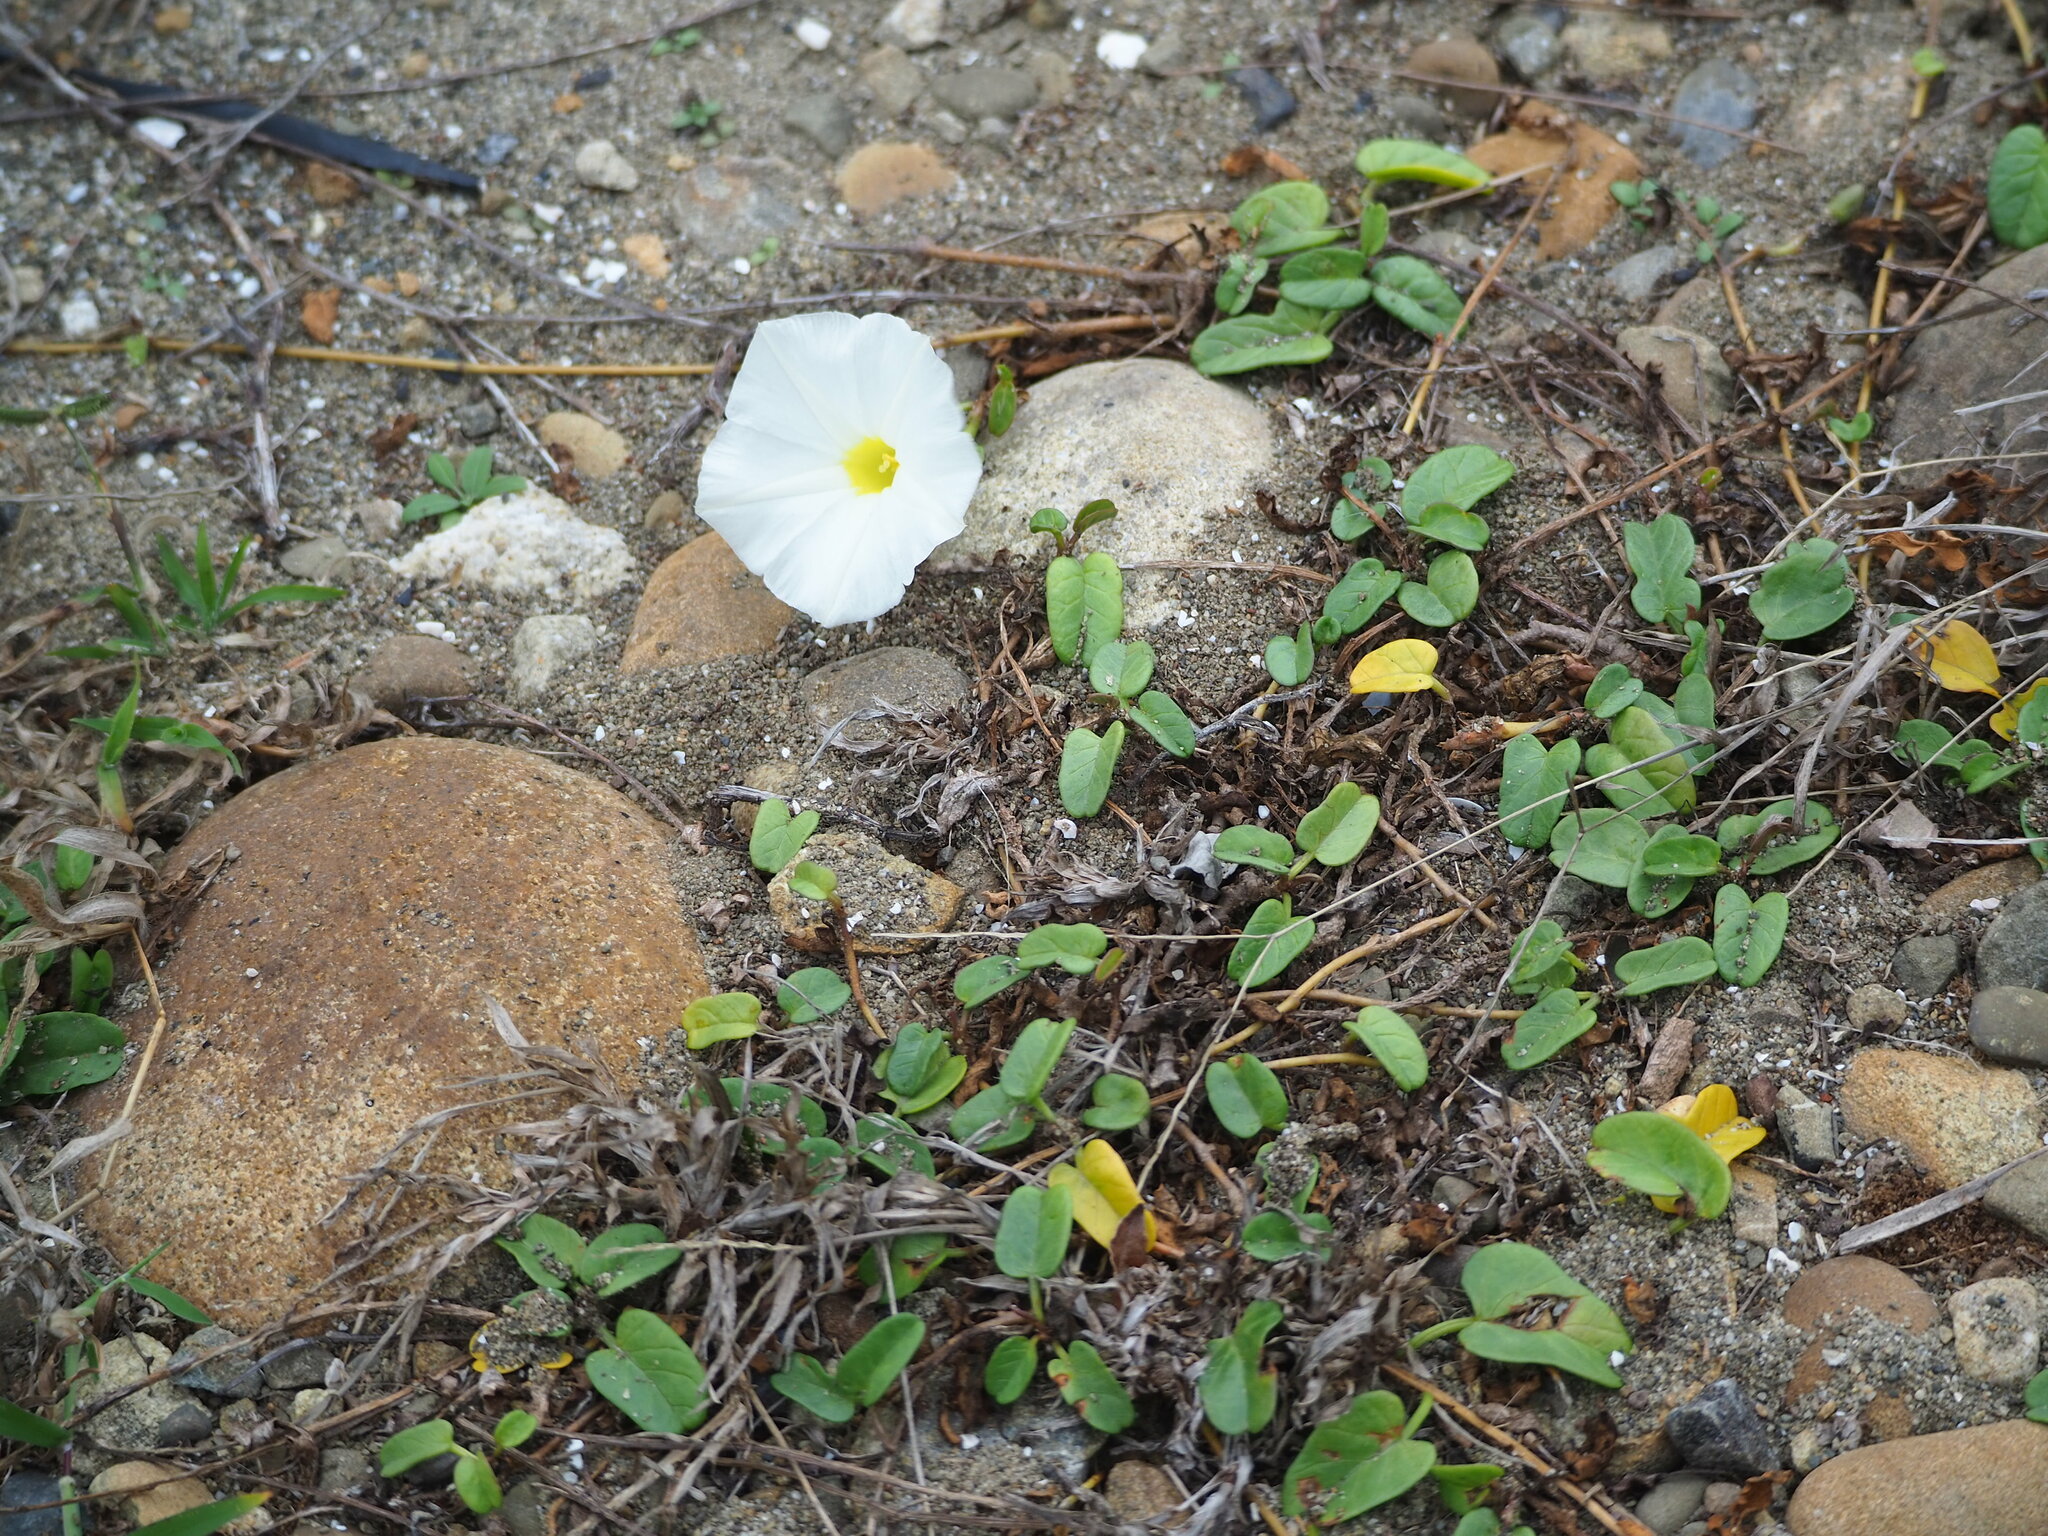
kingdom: Plantae
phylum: Tracheophyta
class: Magnoliopsida
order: Solanales
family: Convolvulaceae
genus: Ipomoea
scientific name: Ipomoea imperati
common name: Fiddle-leaf morning-glory
